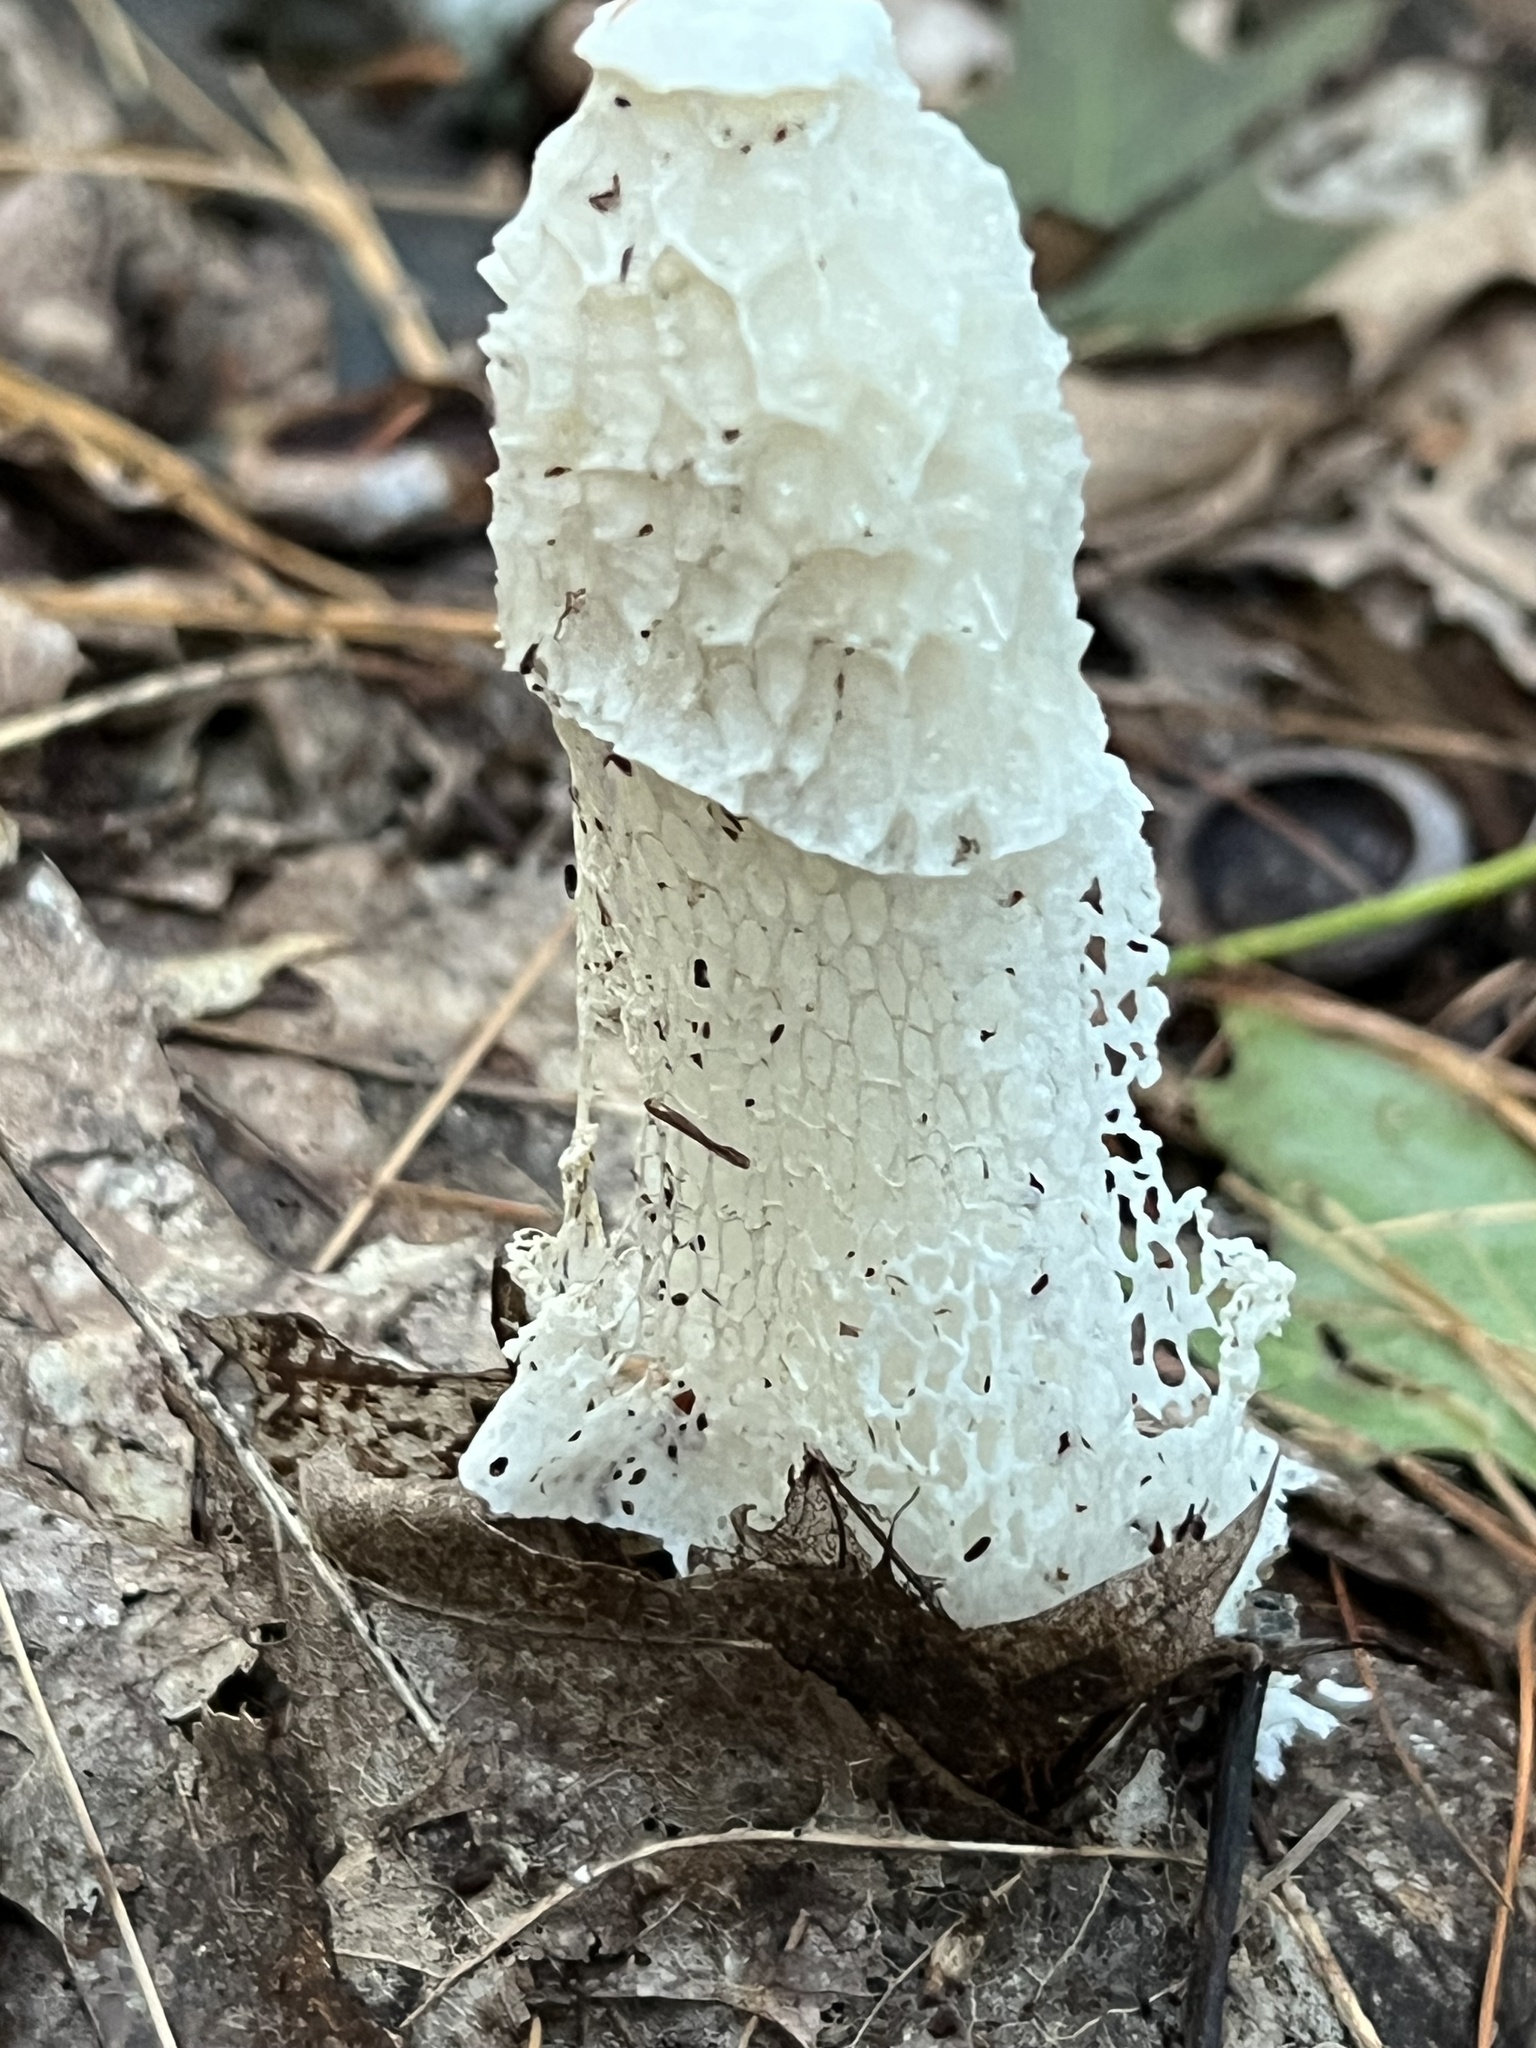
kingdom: Fungi
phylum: Basidiomycota
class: Agaricomycetes
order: Phallales
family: Phallaceae
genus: Phallus
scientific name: Phallus indusiatus
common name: Bridal veil stinkhorn
